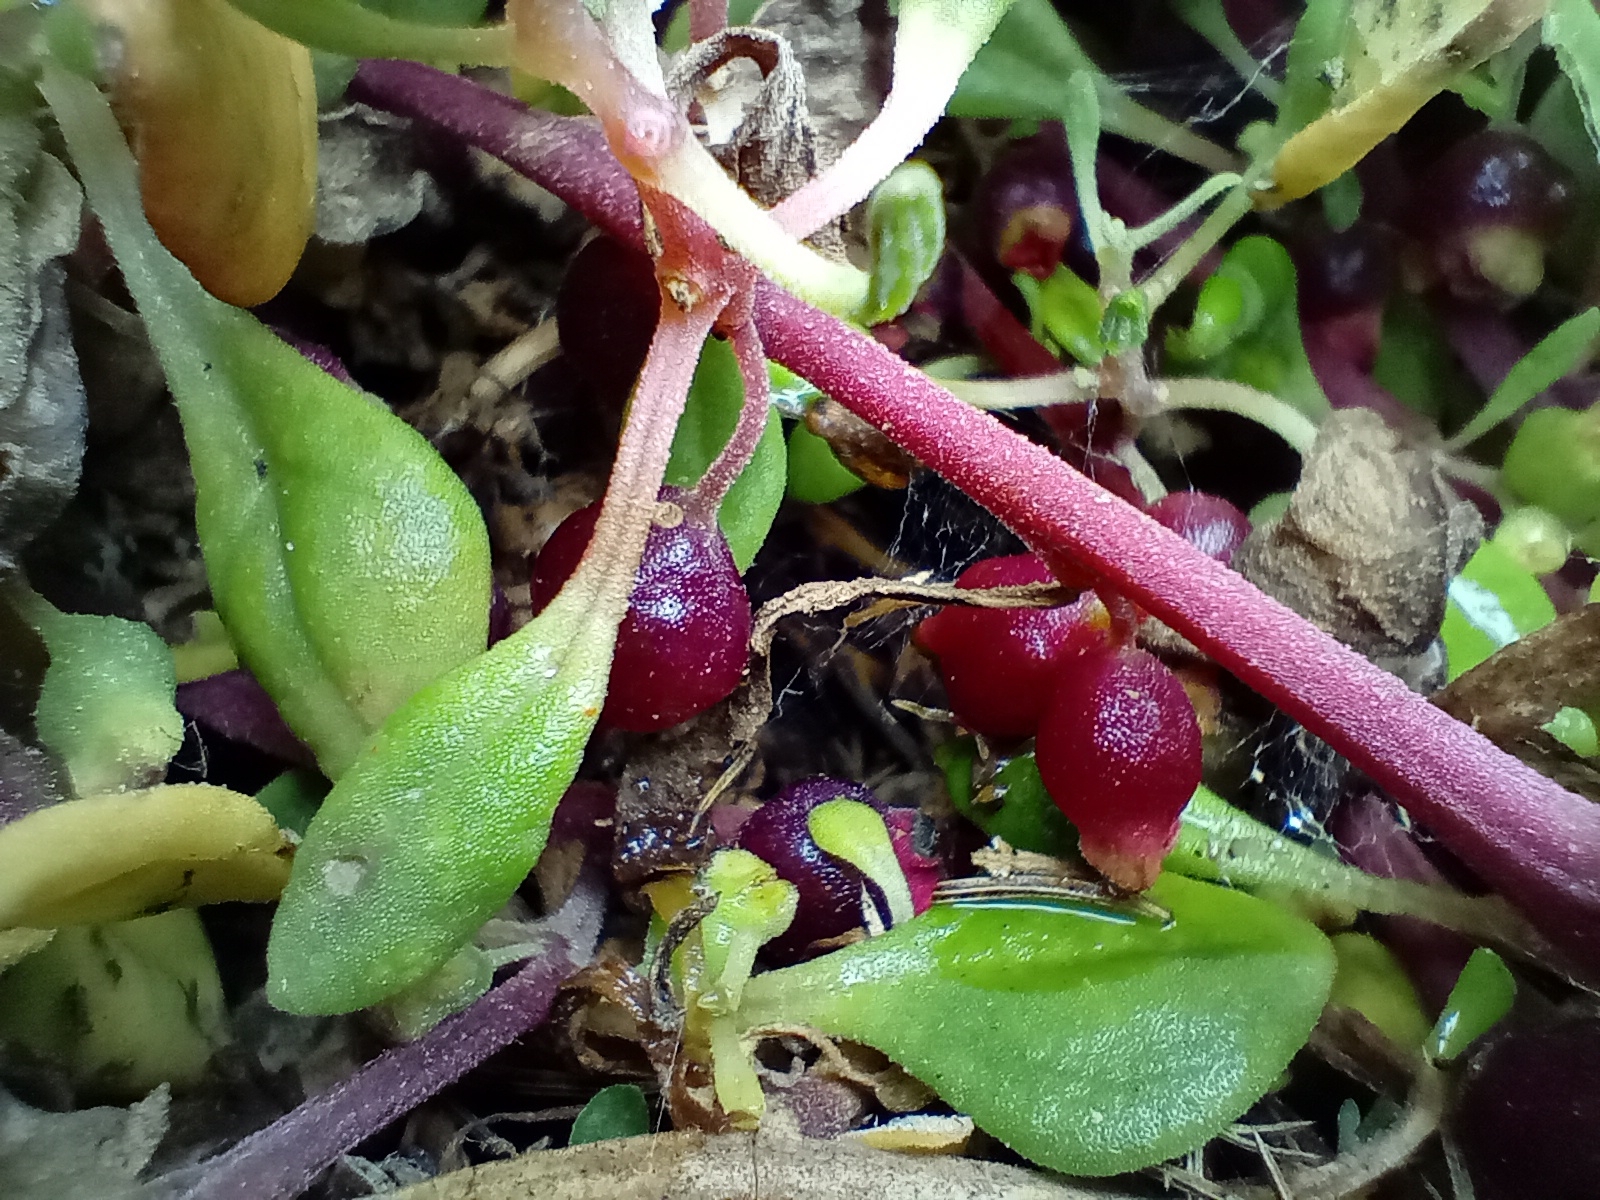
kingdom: Plantae
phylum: Tracheophyta
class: Magnoliopsida
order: Caryophyllales
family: Aizoaceae
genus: Tetragonia
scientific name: Tetragonia implexicoma
